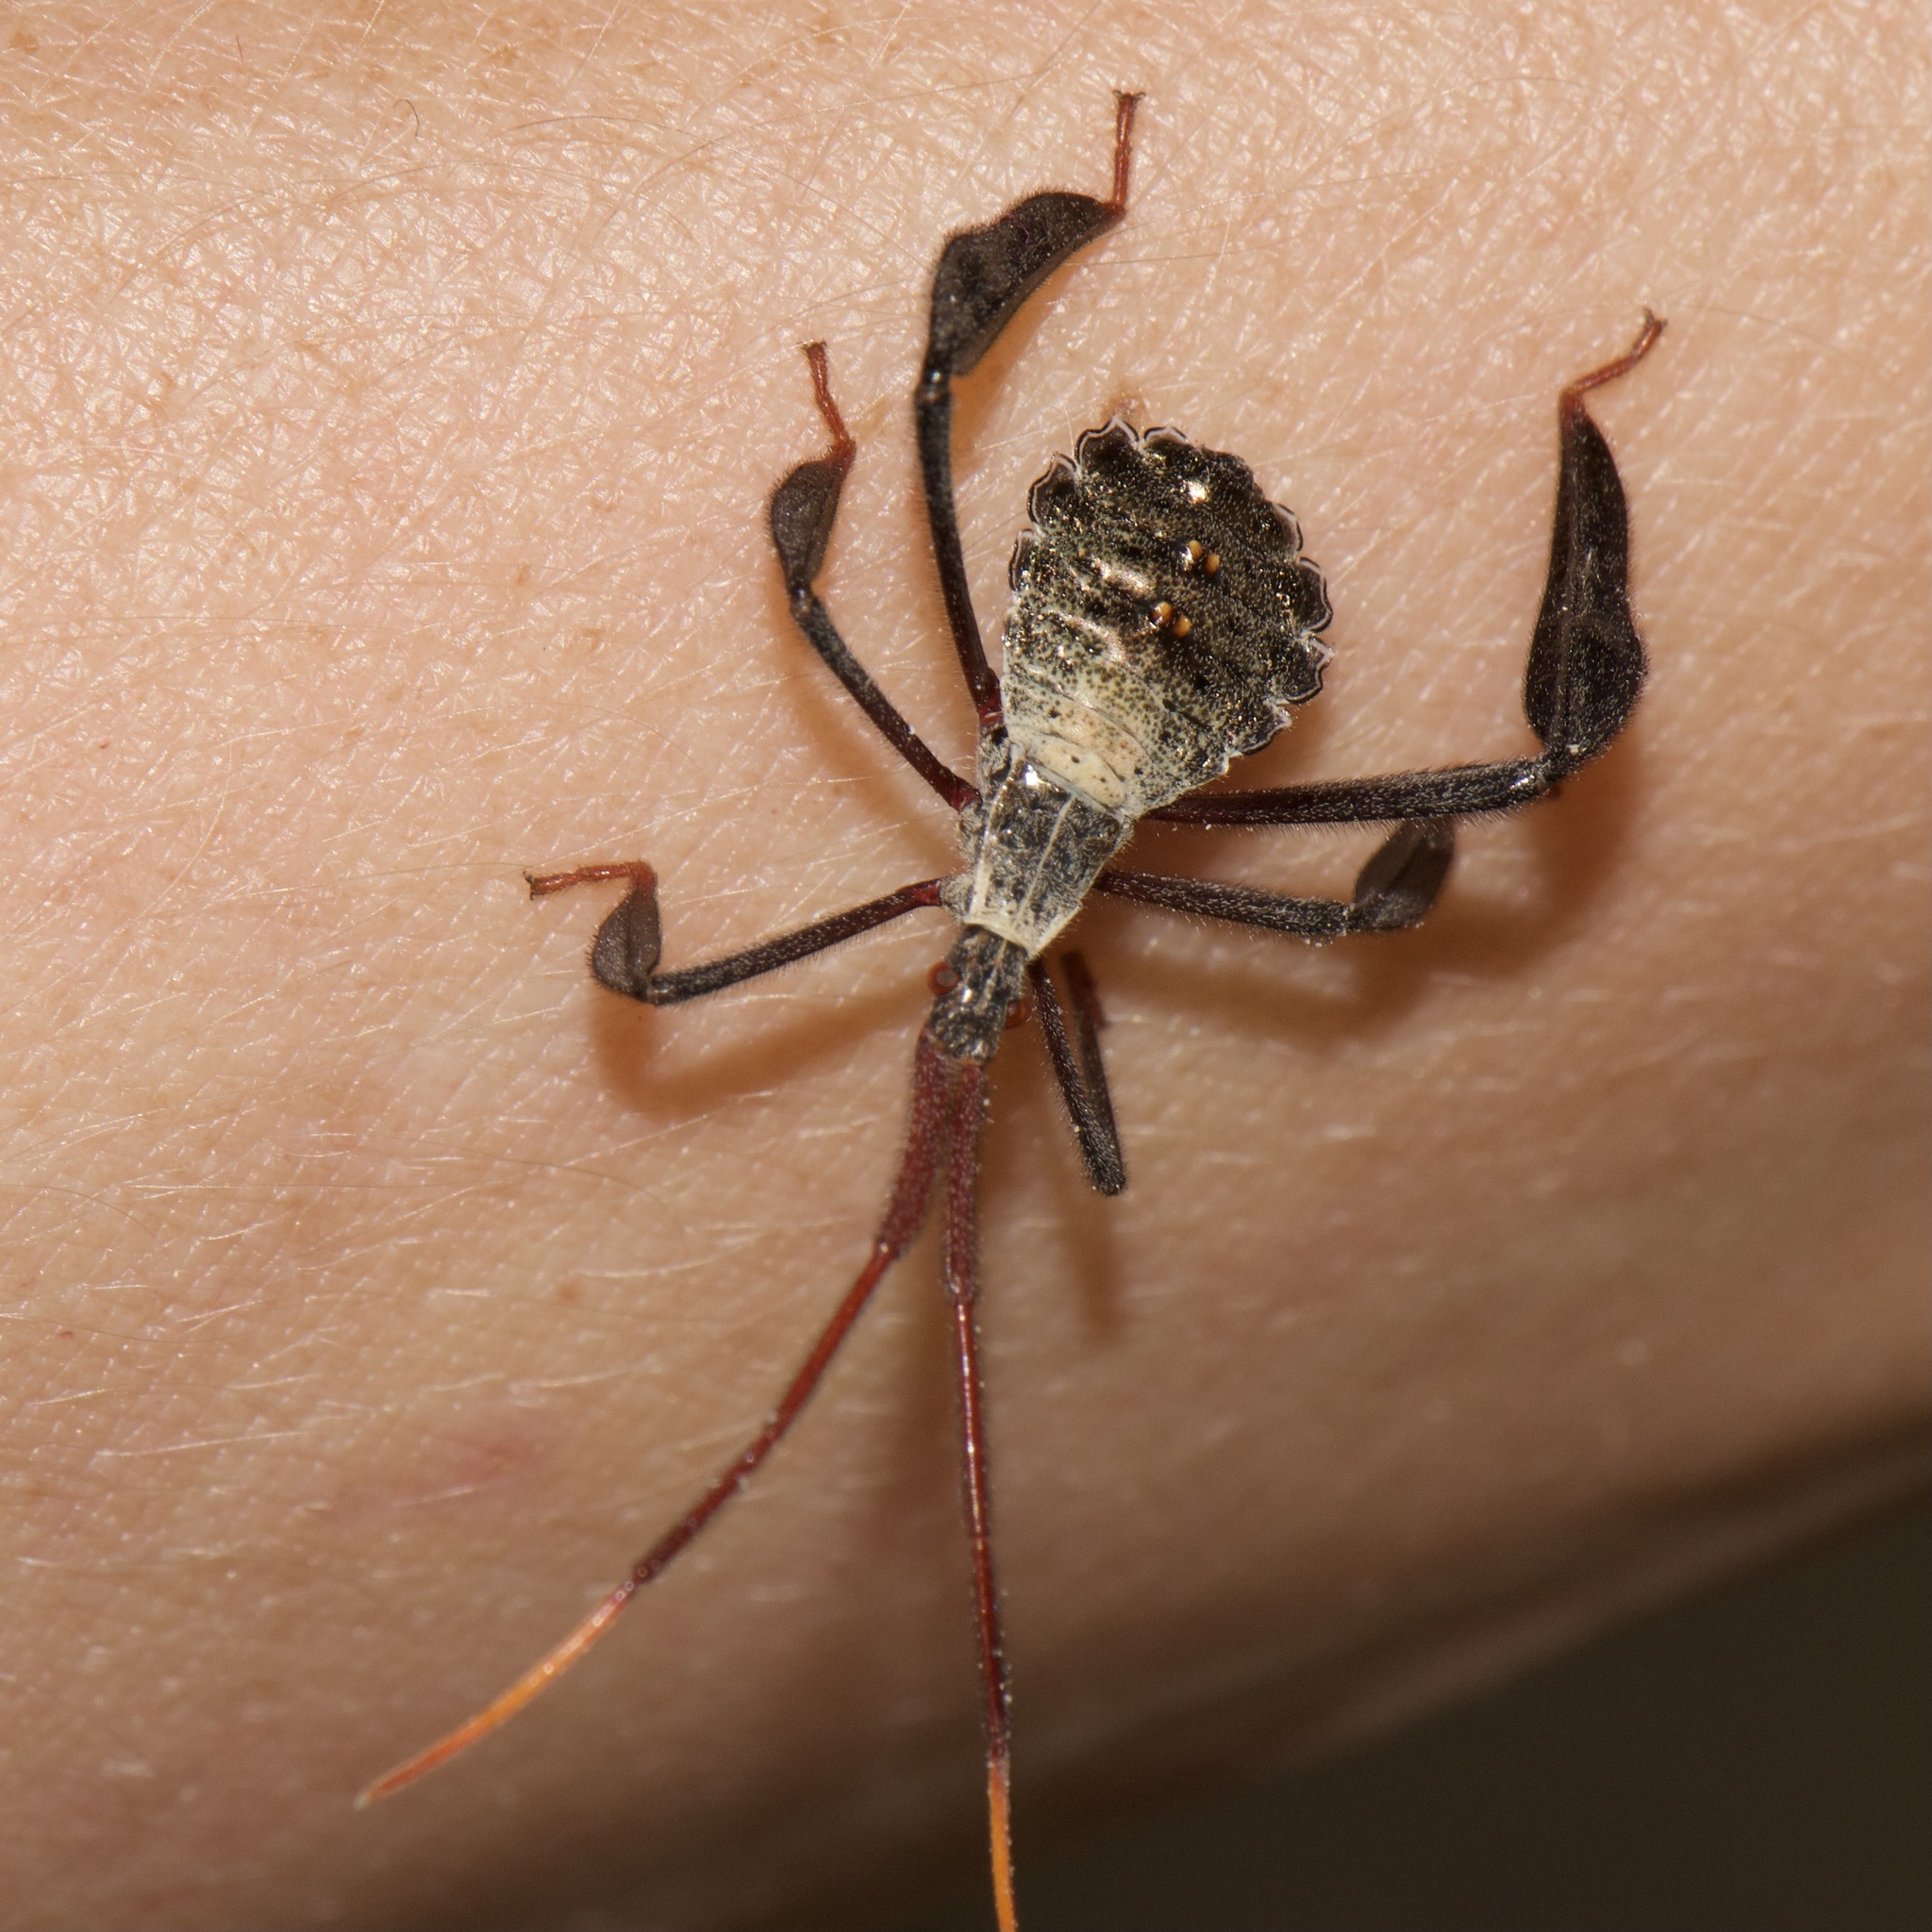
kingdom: Animalia
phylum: Arthropoda
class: Insecta
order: Hemiptera
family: Coreidae
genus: Acanthocephala
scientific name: Acanthocephala declivis
